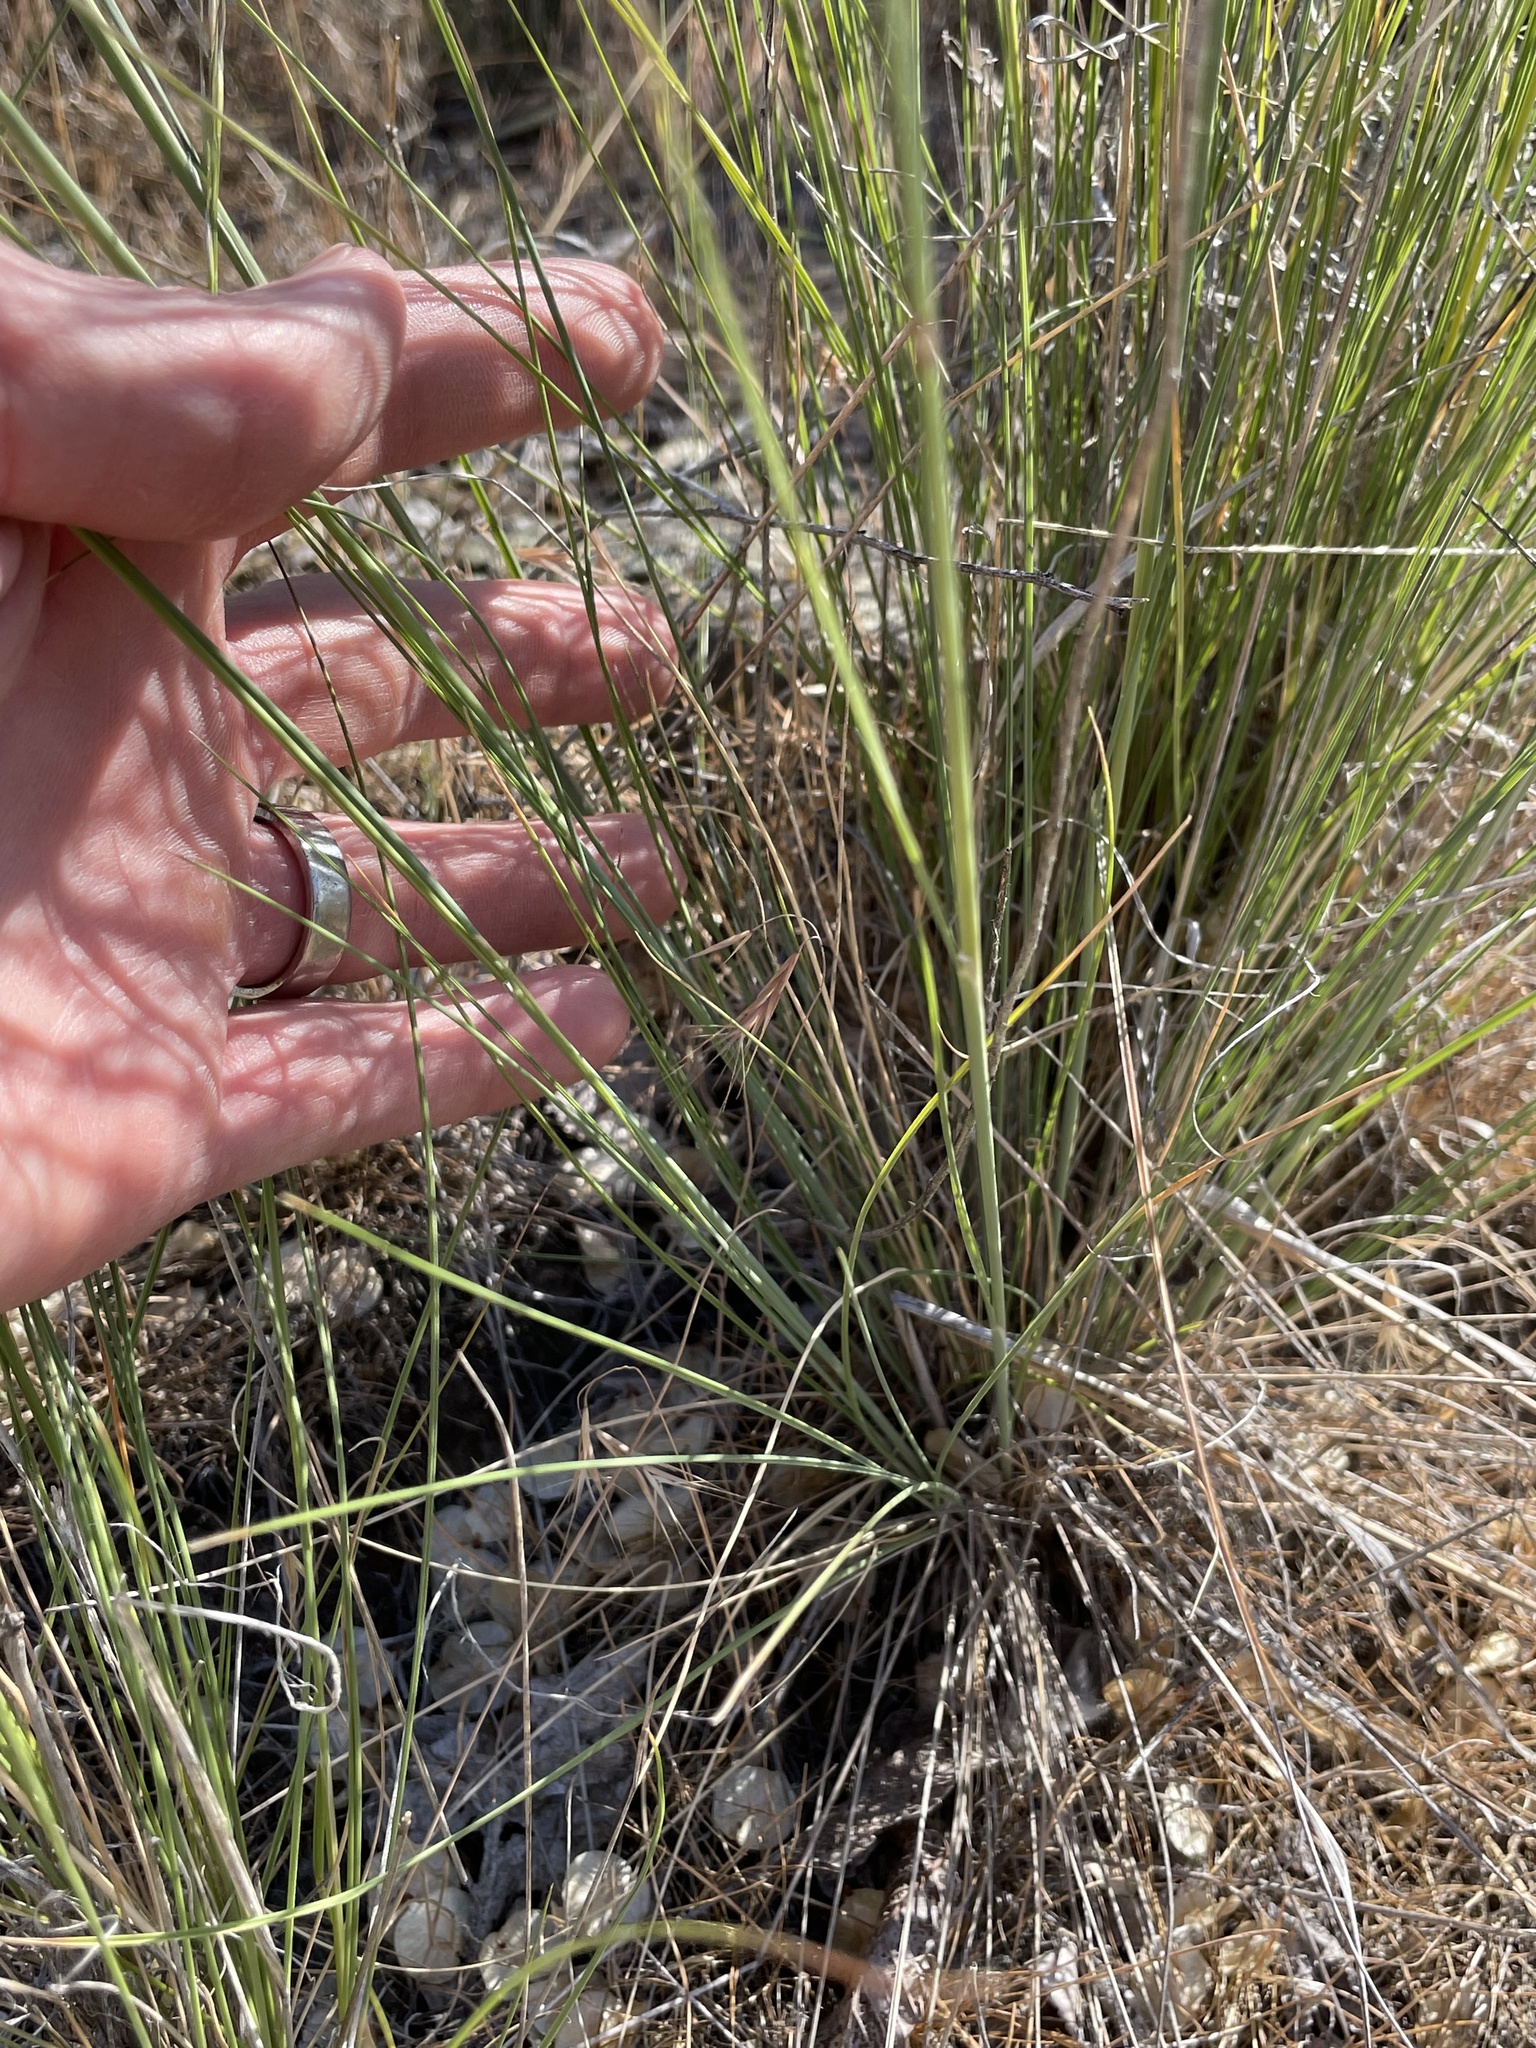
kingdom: Plantae
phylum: Tracheophyta
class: Liliopsida
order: Poales
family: Poaceae
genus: Hesperostipa
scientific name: Hesperostipa comata
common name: Needle-and-thread grass
